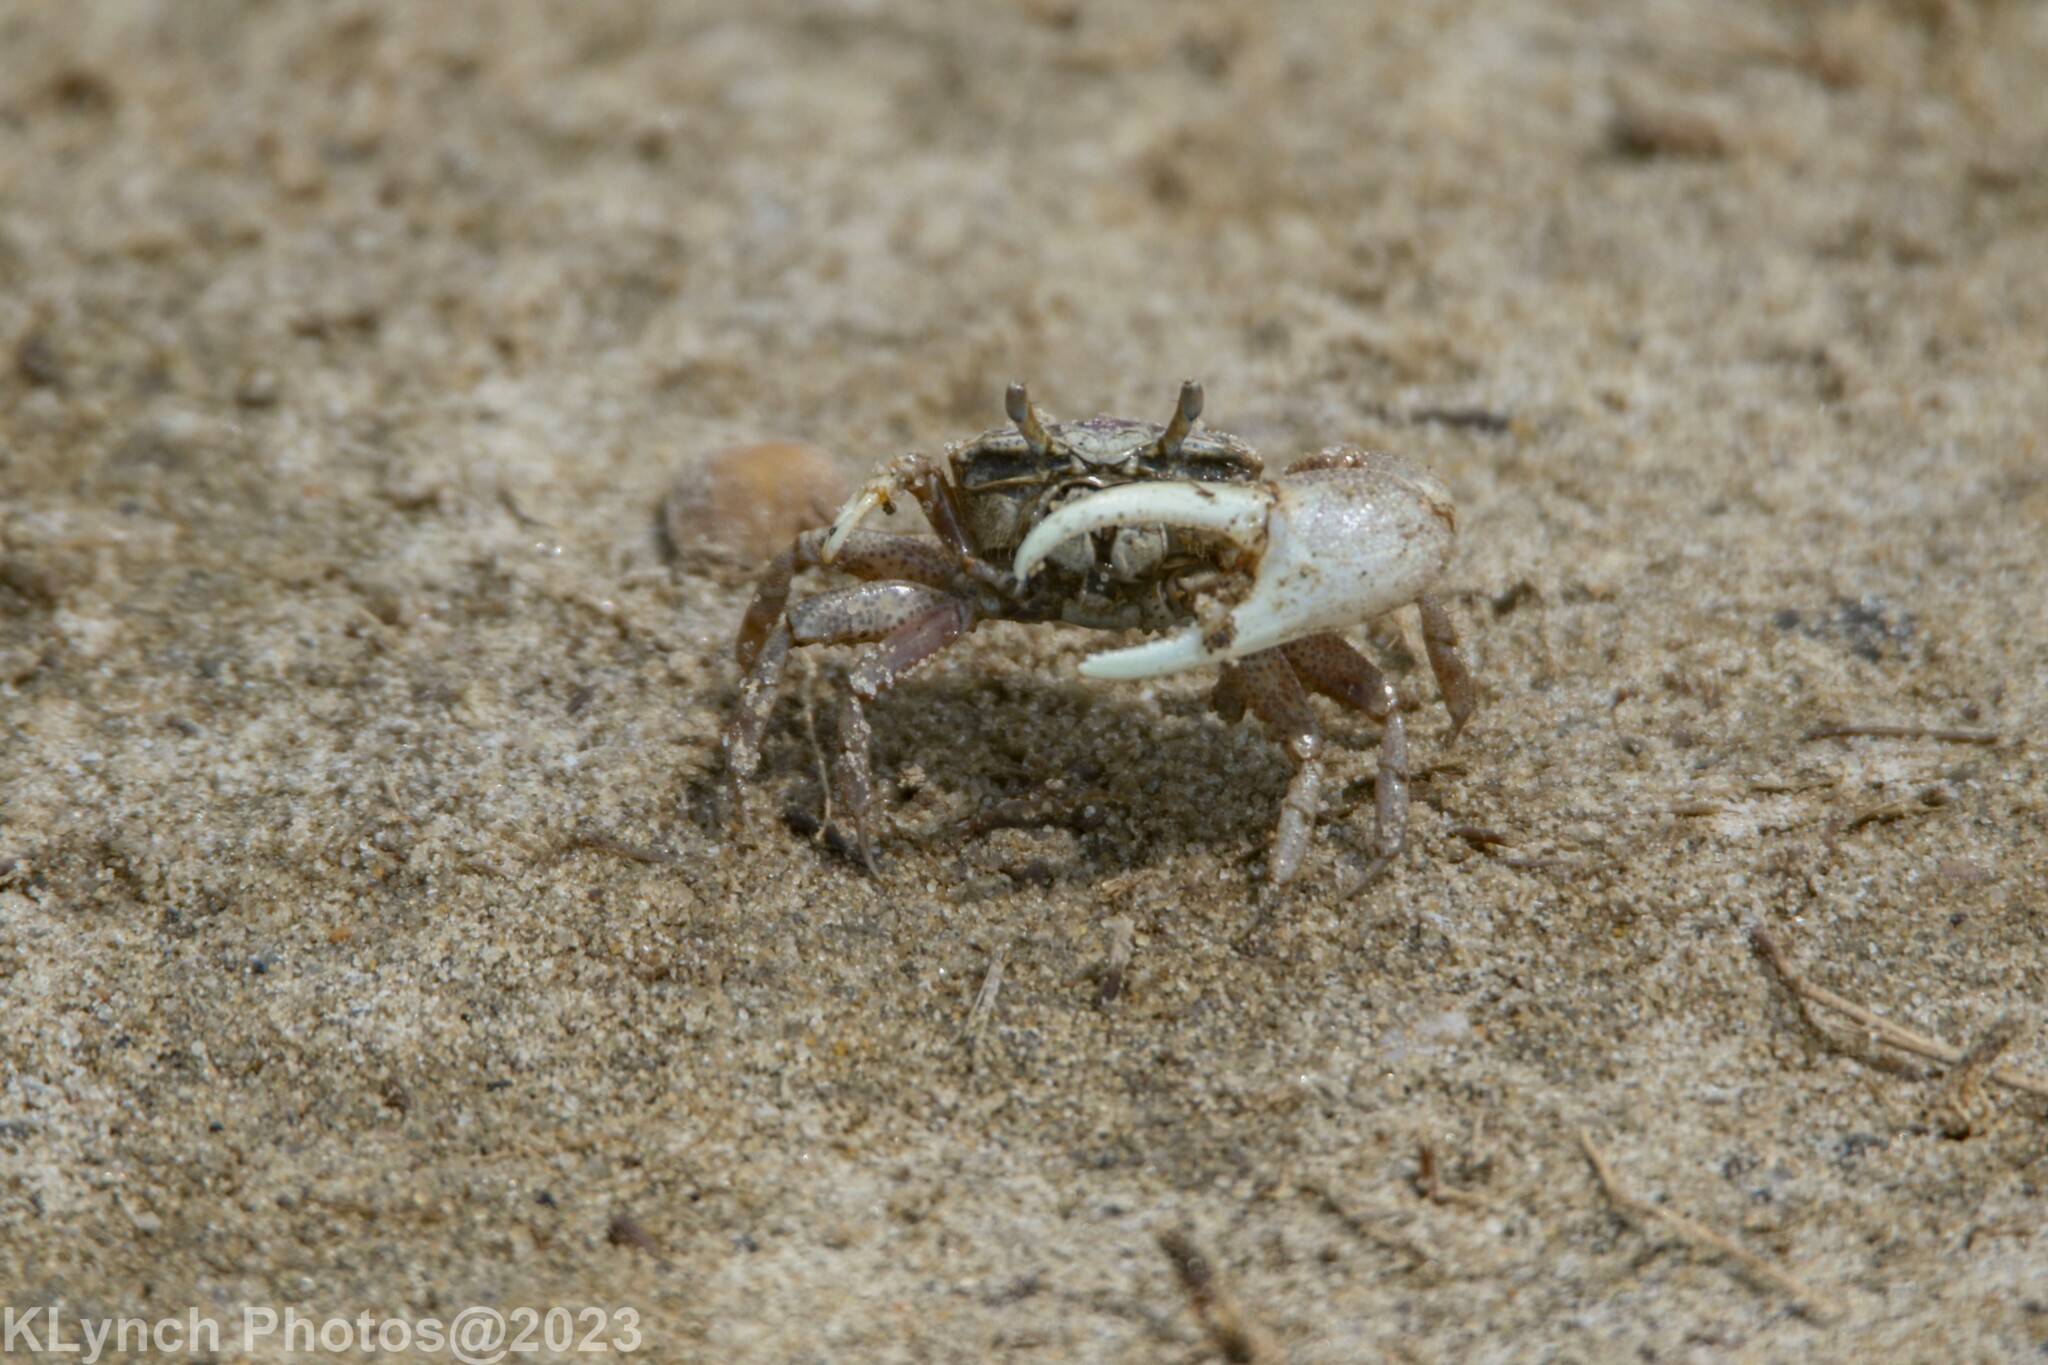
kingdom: Animalia
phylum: Arthropoda
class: Malacostraca
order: Decapoda
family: Ocypodidae
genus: Leptuca
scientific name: Leptuca pugilator
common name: Atlantic sand fiddler crab
